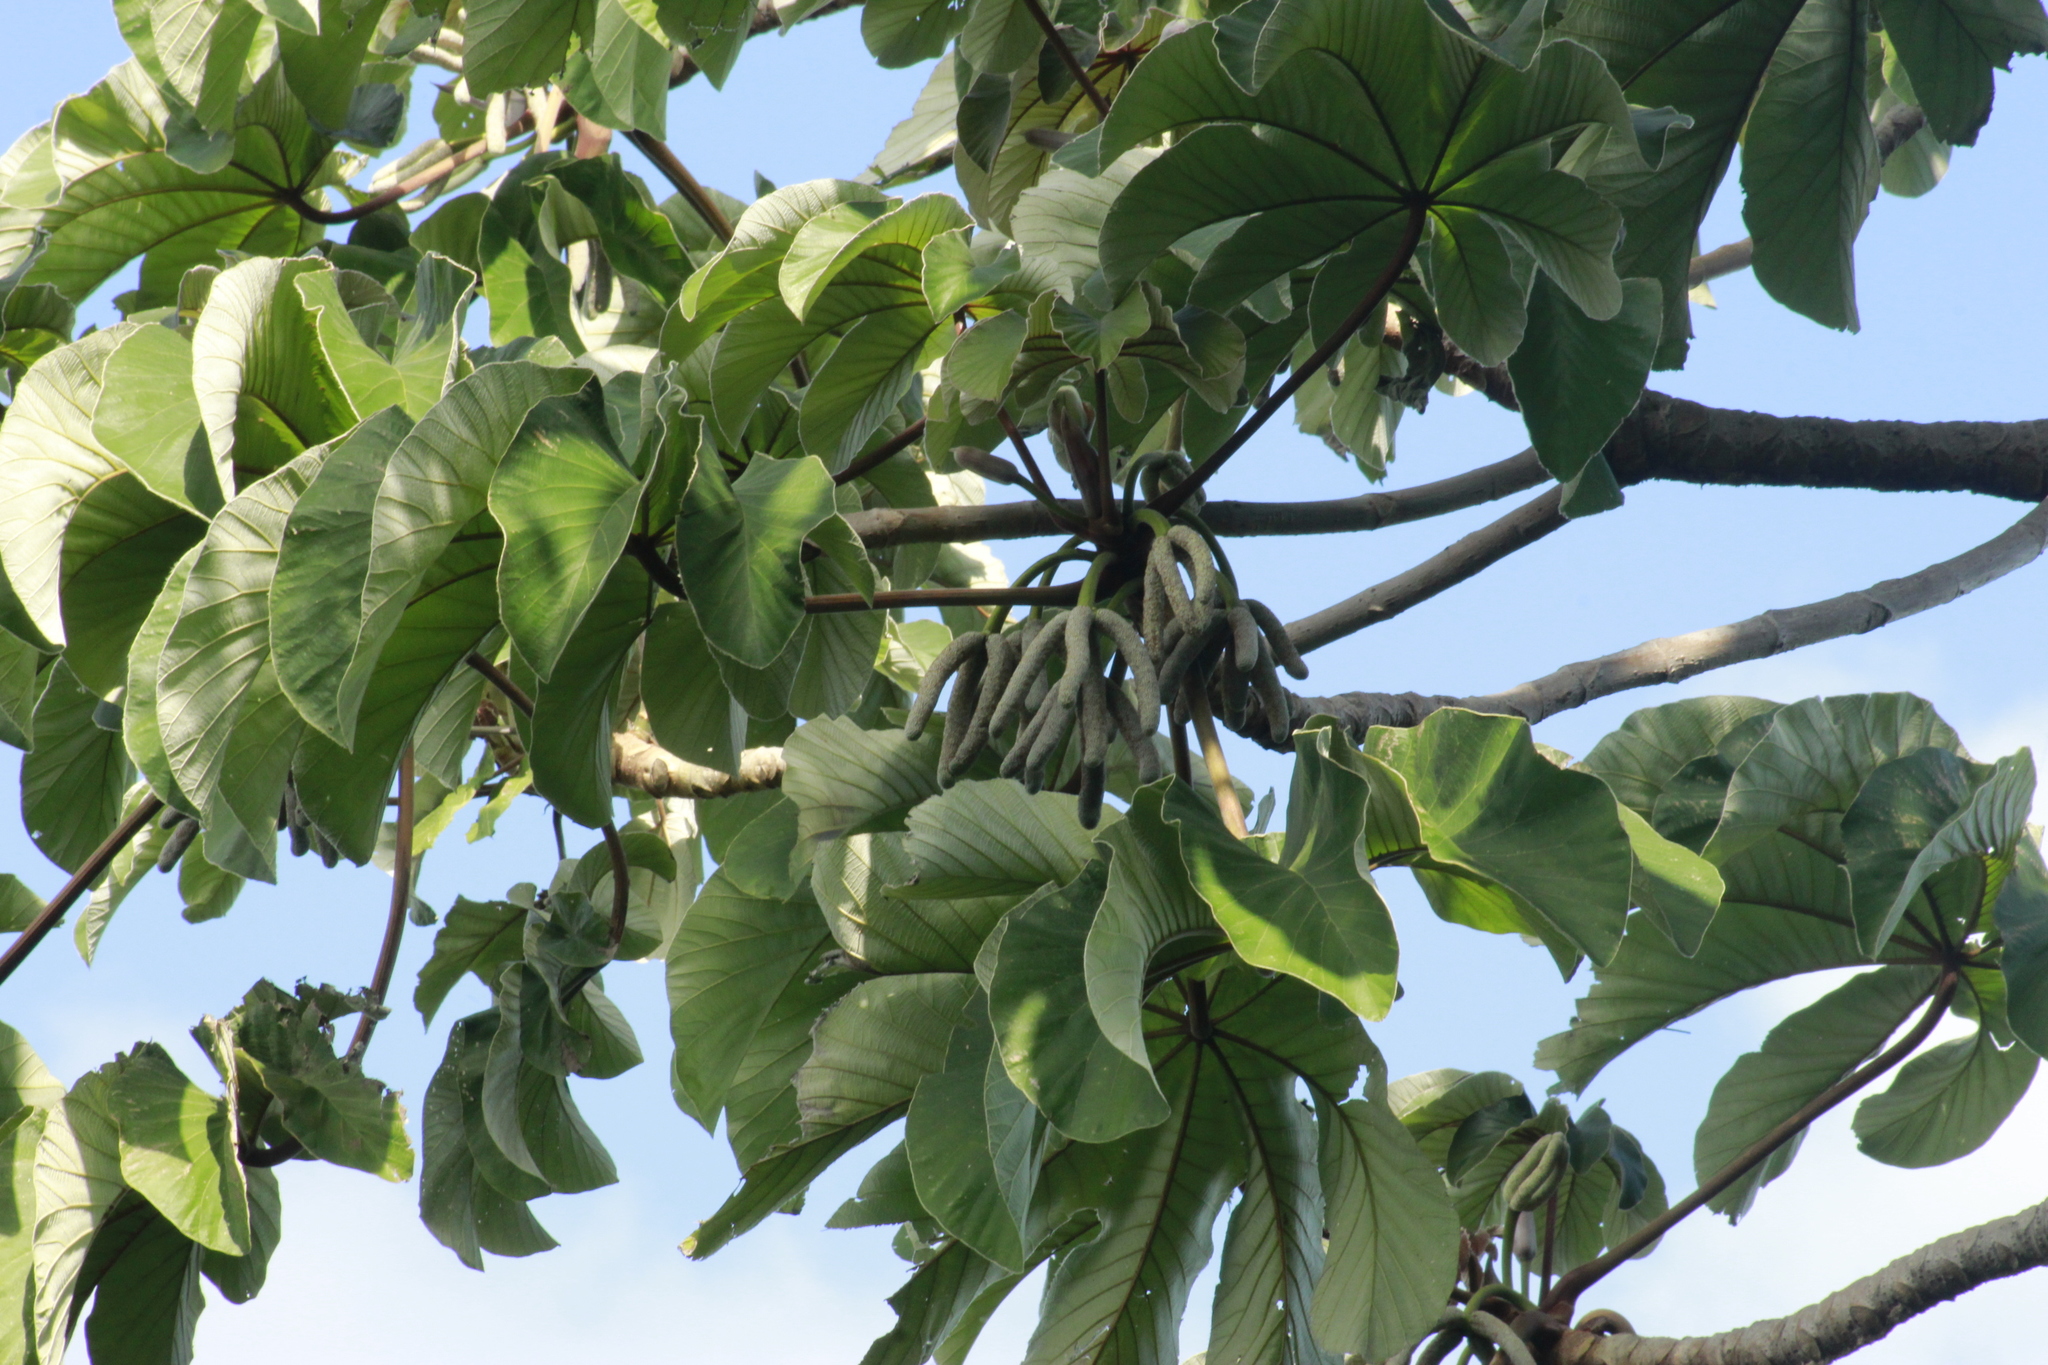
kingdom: Plantae
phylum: Tracheophyta
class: Magnoliopsida
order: Rosales
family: Urticaceae
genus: Cecropia
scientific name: Cecropia peltata
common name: Trumpet-tree
